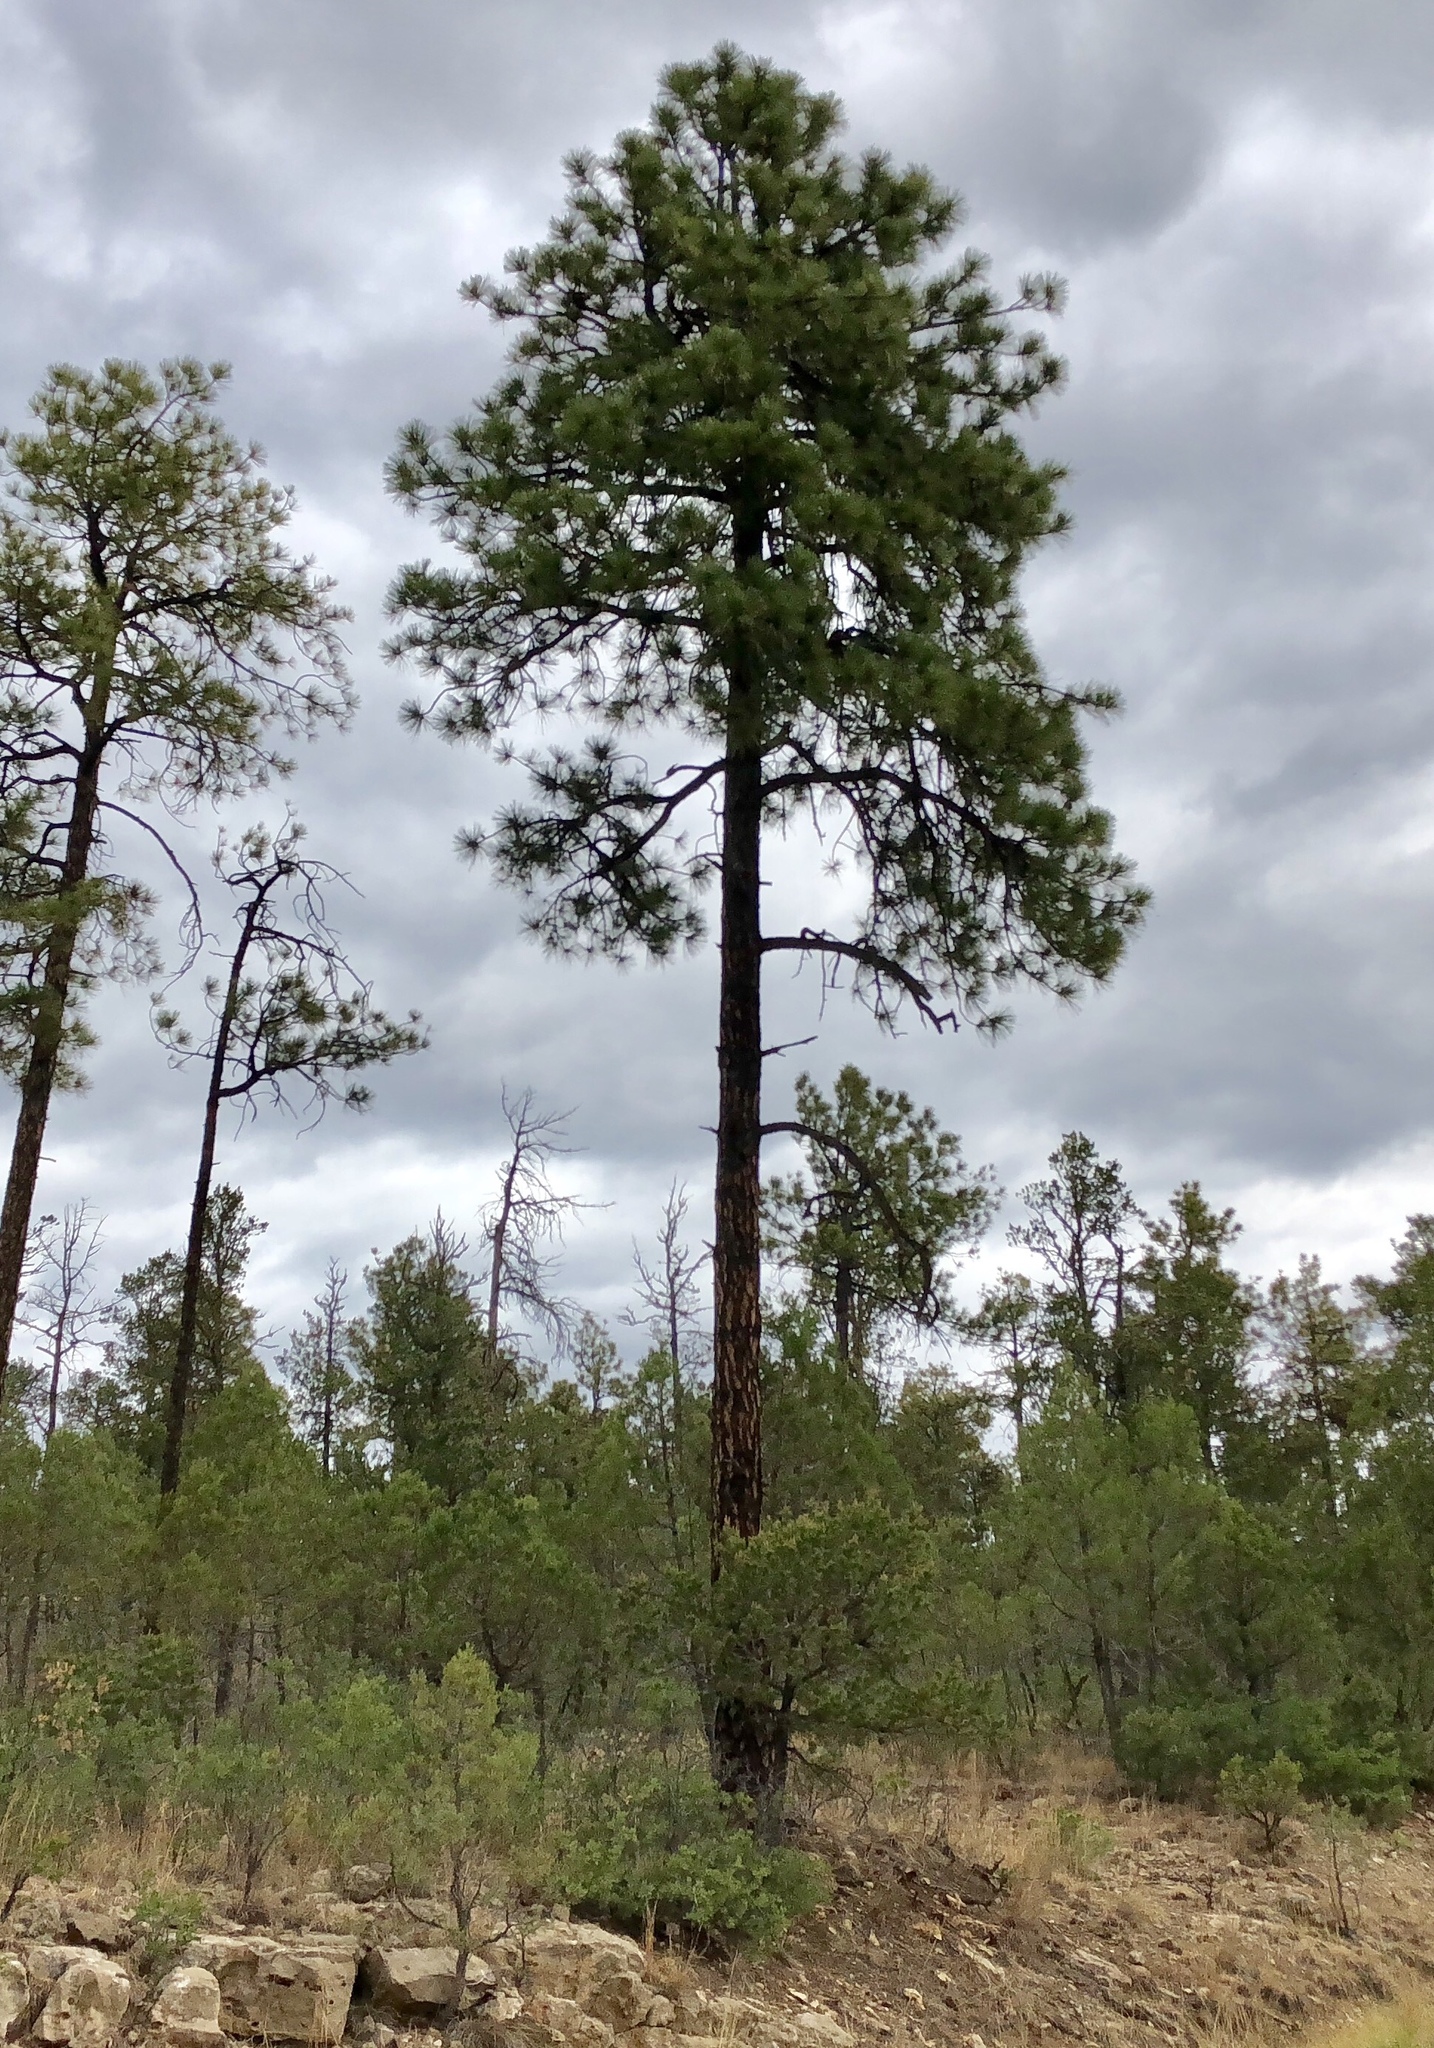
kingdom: Plantae
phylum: Tracheophyta
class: Pinopsida
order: Pinales
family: Pinaceae
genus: Pinus
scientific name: Pinus ponderosa
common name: Western yellow-pine
